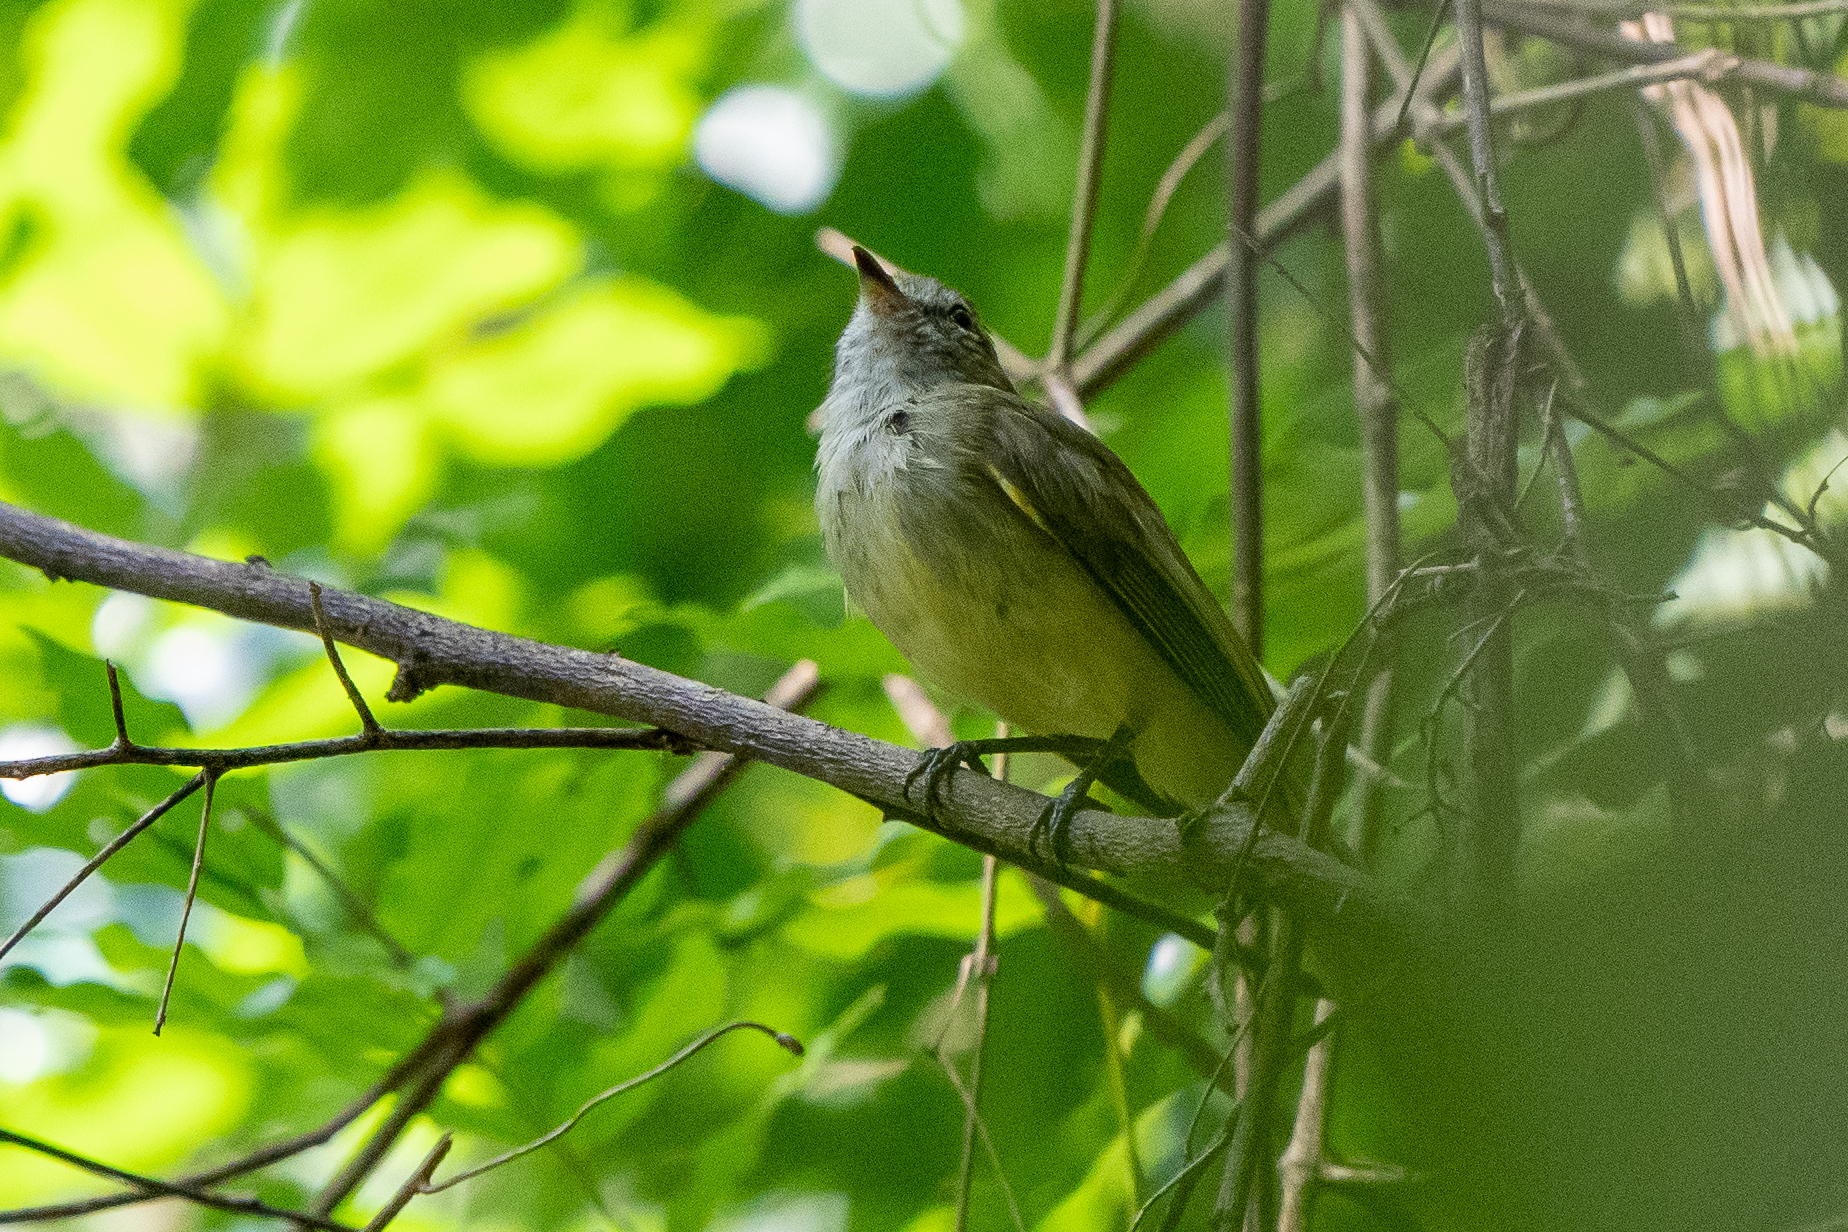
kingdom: Animalia
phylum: Chordata
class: Aves
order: Passeriformes
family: Tyrannidae
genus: Myiopagis
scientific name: Myiopagis viridicata
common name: Greenish elaenia
